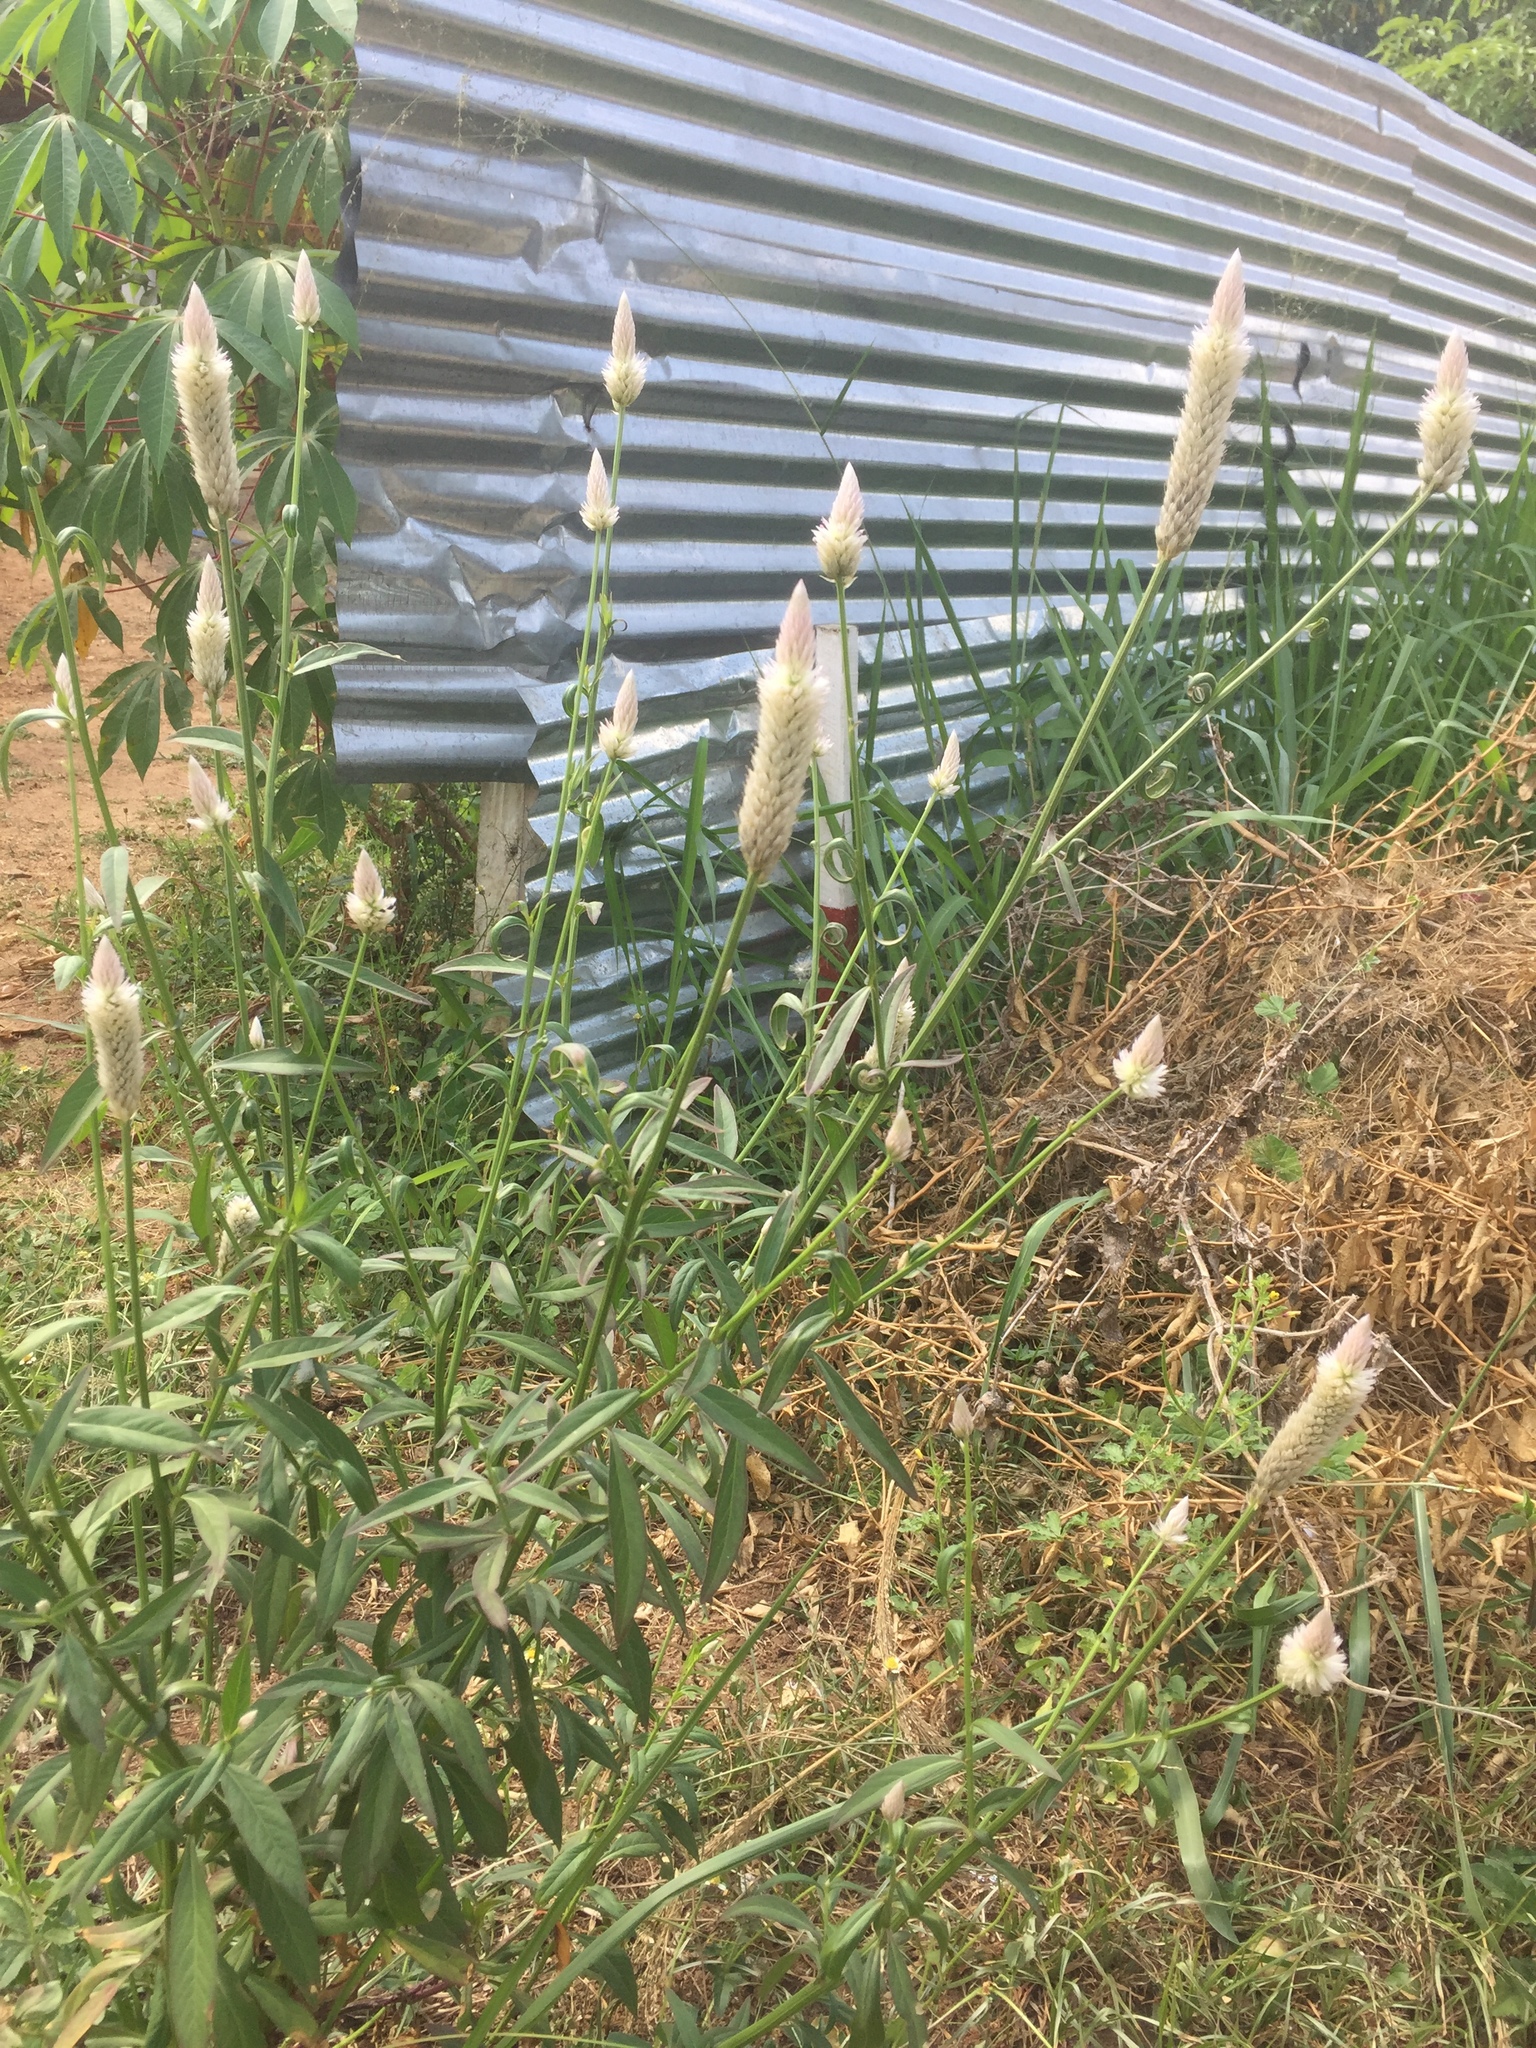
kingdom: Plantae
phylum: Tracheophyta
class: Magnoliopsida
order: Caryophyllales
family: Amaranthaceae
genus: Celosia
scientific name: Celosia argentea
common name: Feather cockscomb
